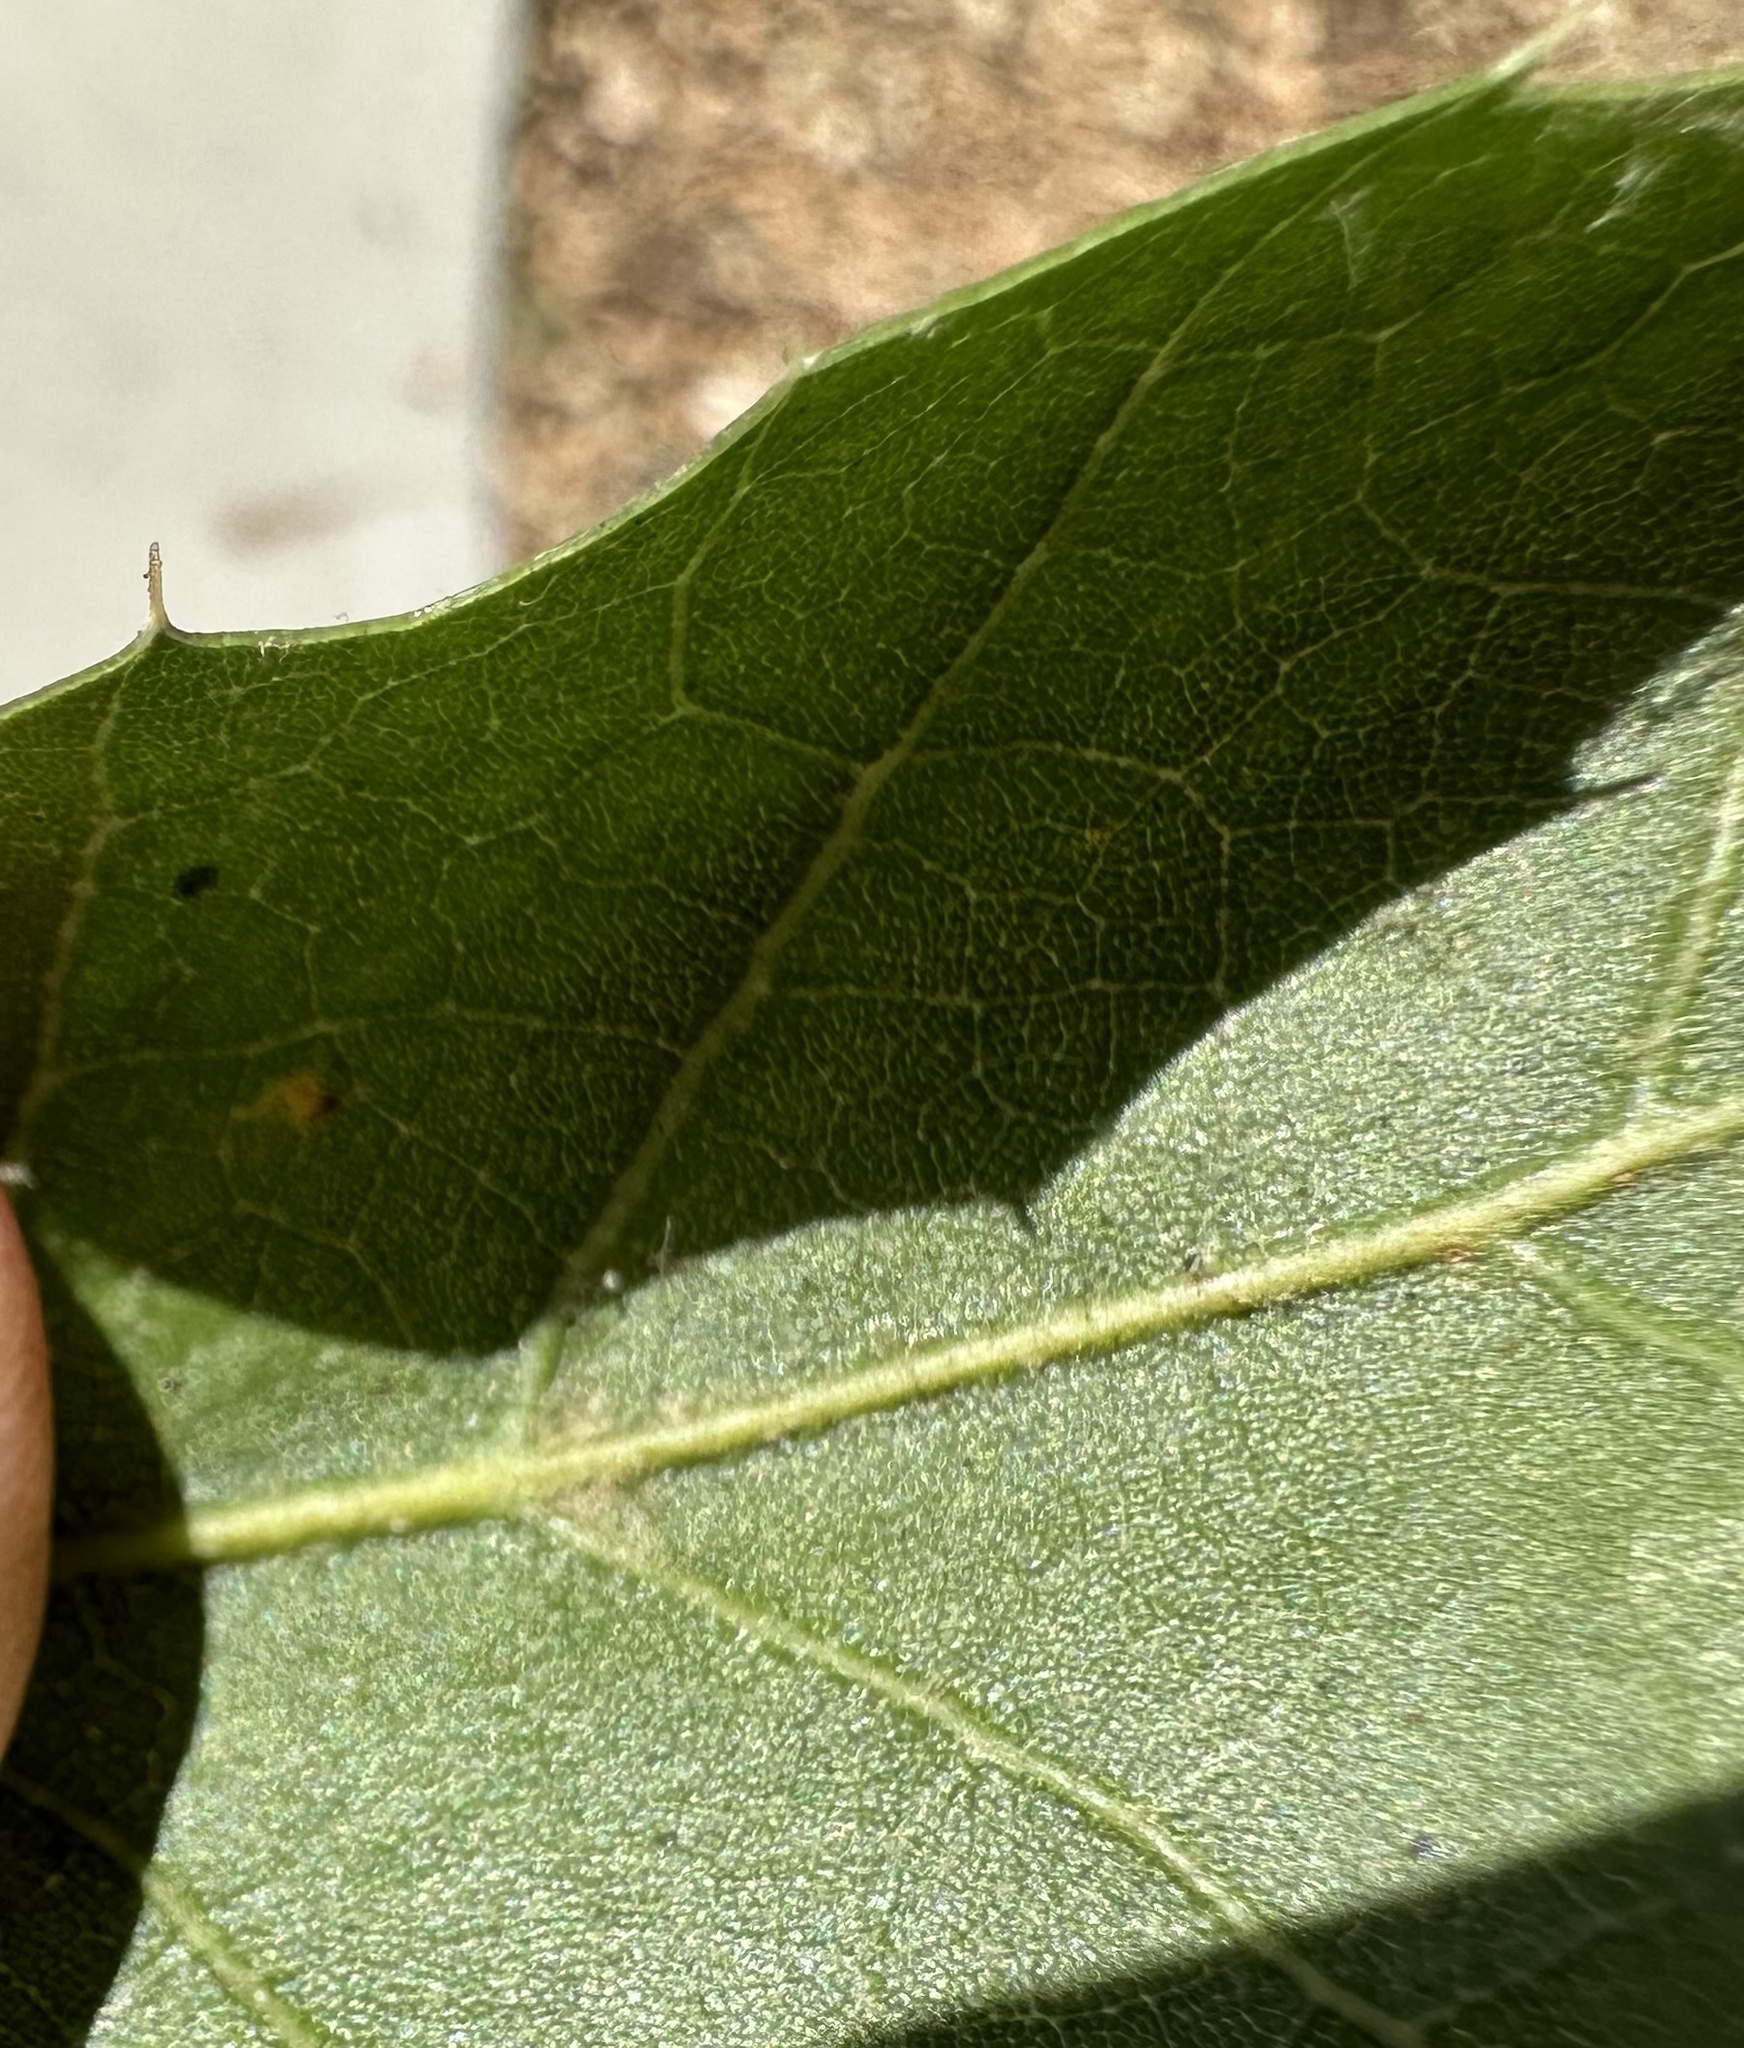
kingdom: Plantae
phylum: Tracheophyta
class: Magnoliopsida
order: Fagales
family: Fagaceae
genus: Quercus
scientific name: Quercus agrifolia
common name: California live oak
